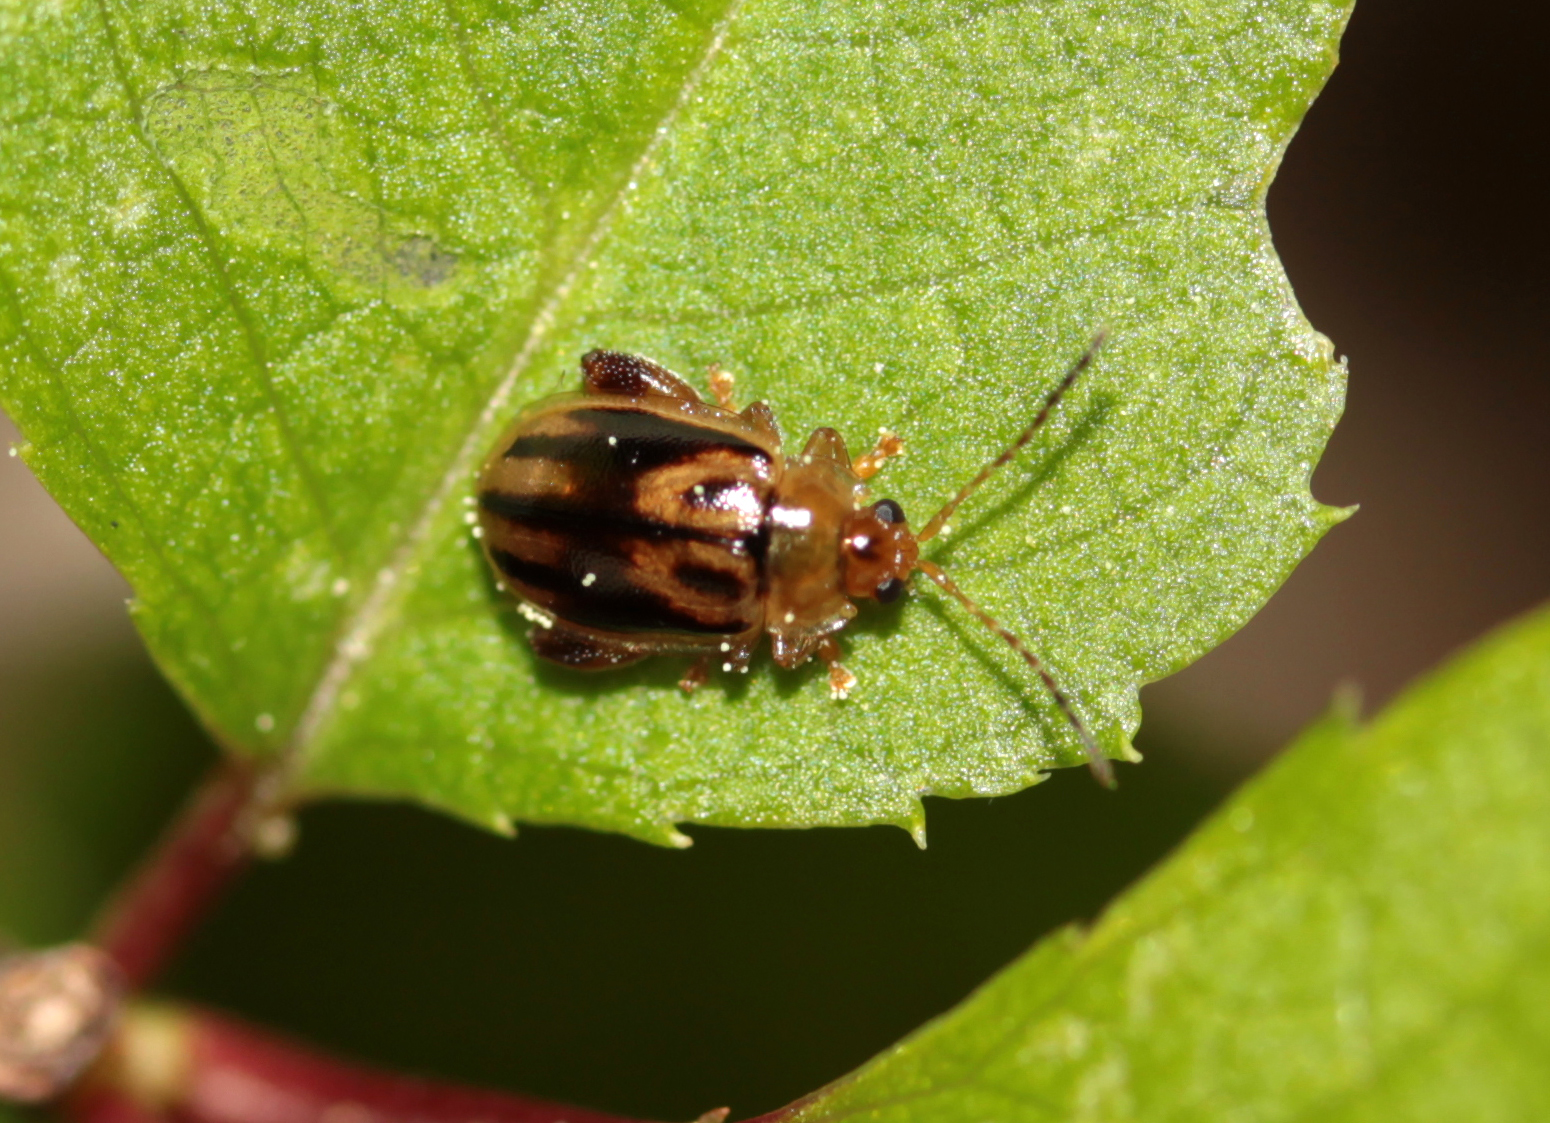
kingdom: Animalia
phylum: Arthropoda
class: Insecta
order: Coleoptera
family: Chrysomelidae
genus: Capraita
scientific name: Capraita subvittata
